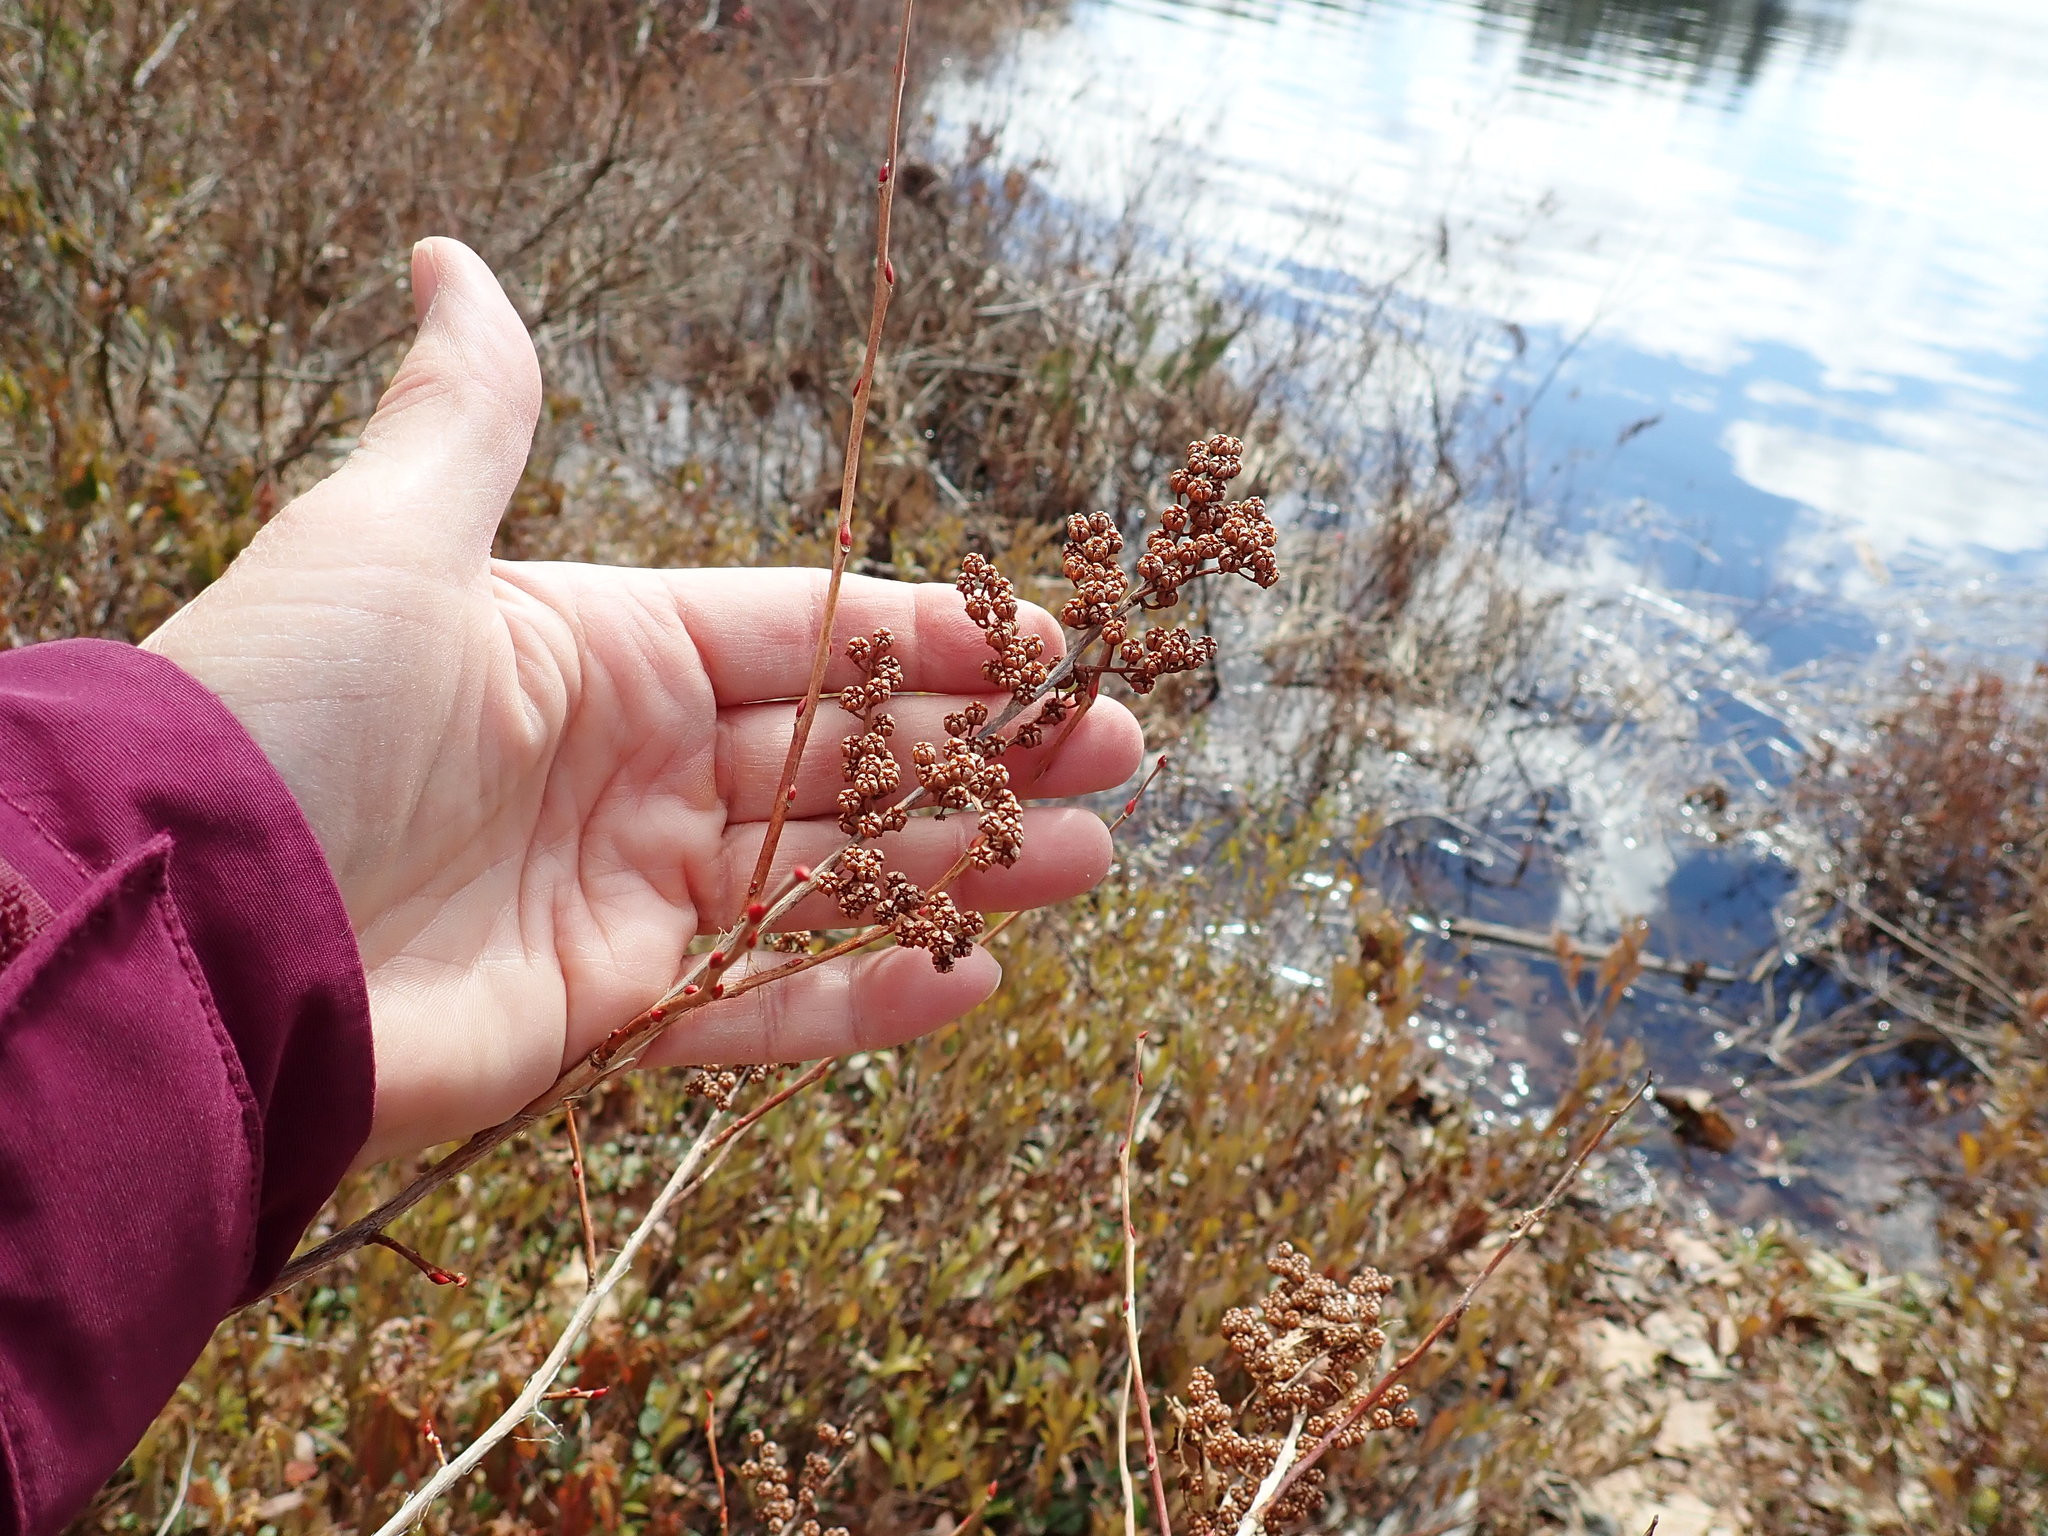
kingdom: Plantae
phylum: Tracheophyta
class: Magnoliopsida
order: Ericales
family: Ericaceae
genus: Lyonia
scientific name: Lyonia ligustrina
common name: Maleberry
